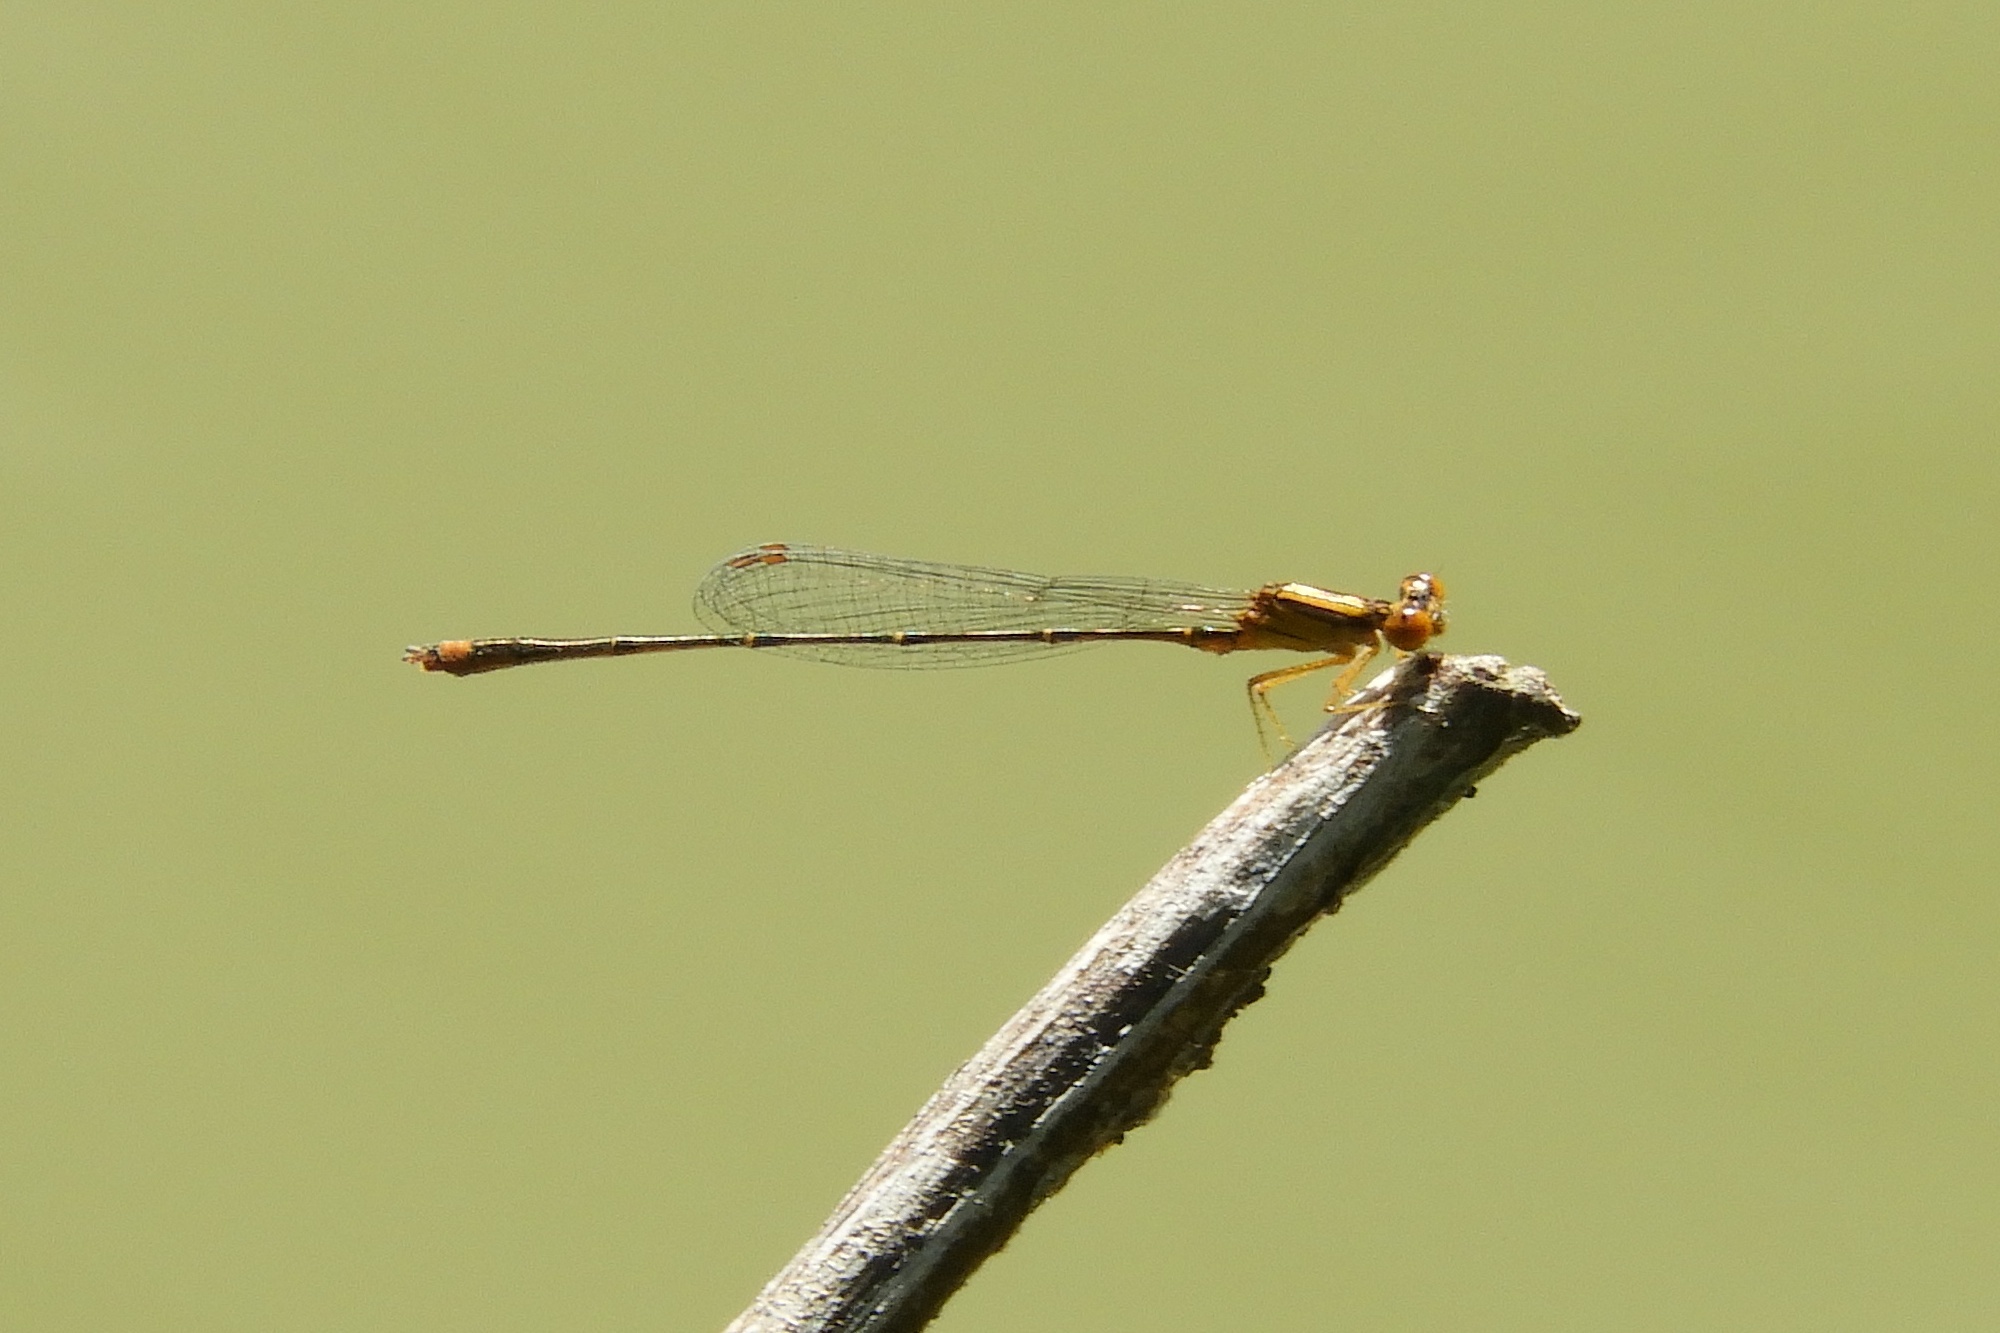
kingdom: Animalia
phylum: Arthropoda
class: Insecta
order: Odonata
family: Coenagrionidae
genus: Enallagma
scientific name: Enallagma signatum
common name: Orange bluet
